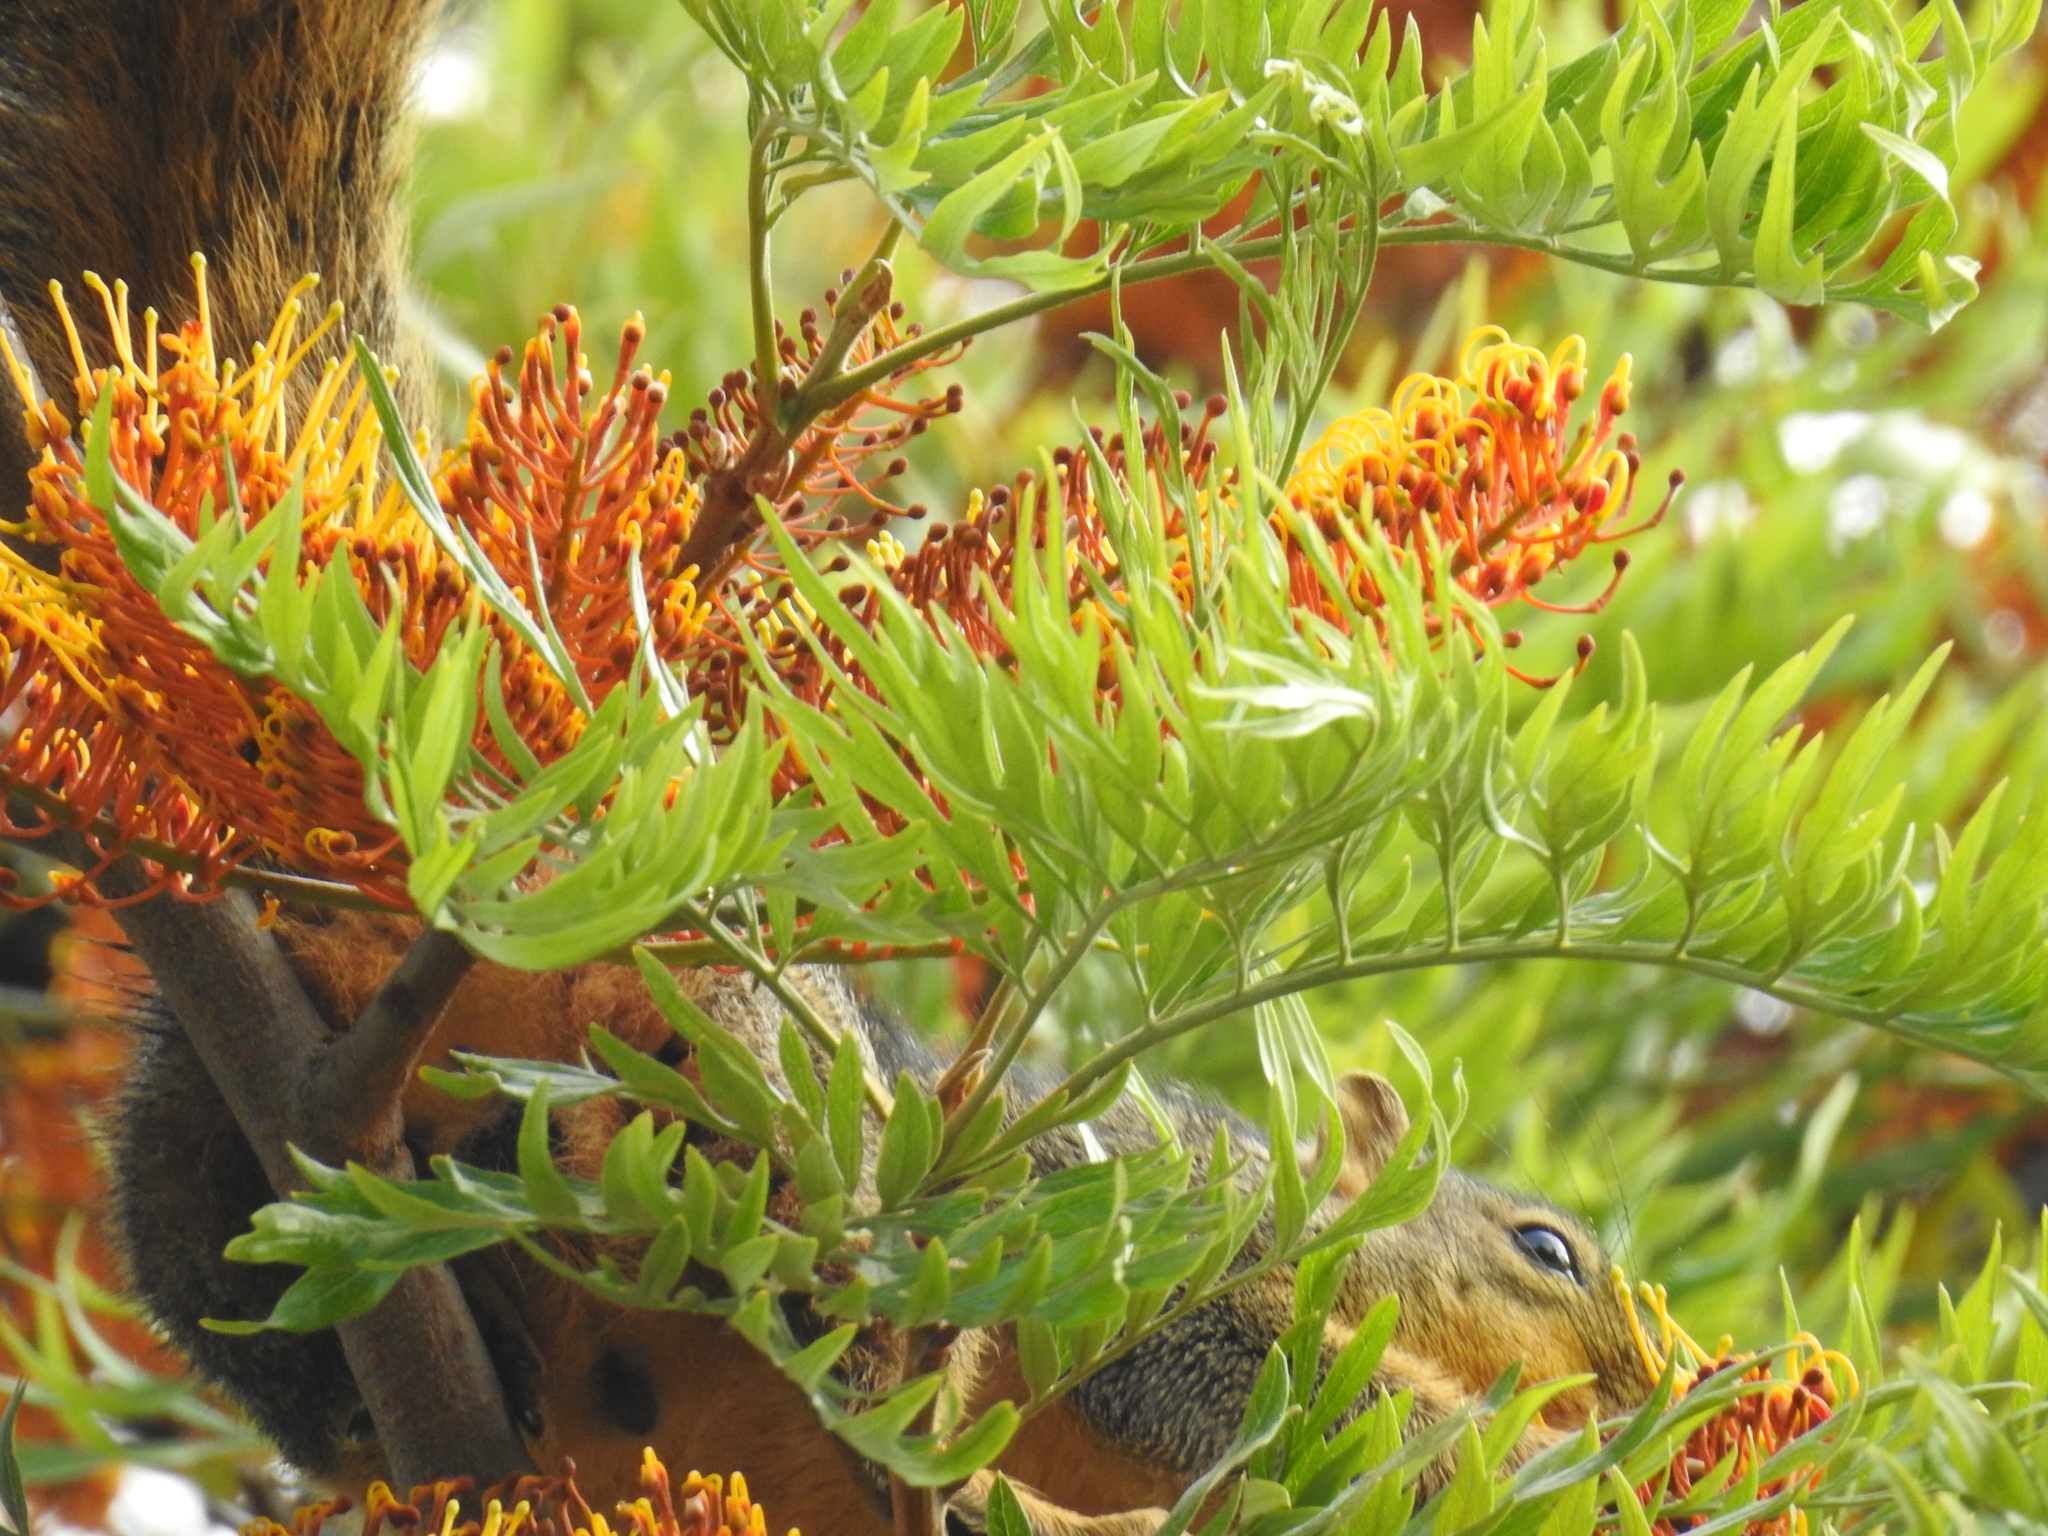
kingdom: Animalia
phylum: Chordata
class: Mammalia
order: Rodentia
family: Sciuridae
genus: Sciurus
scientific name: Sciurus niger
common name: Fox squirrel
